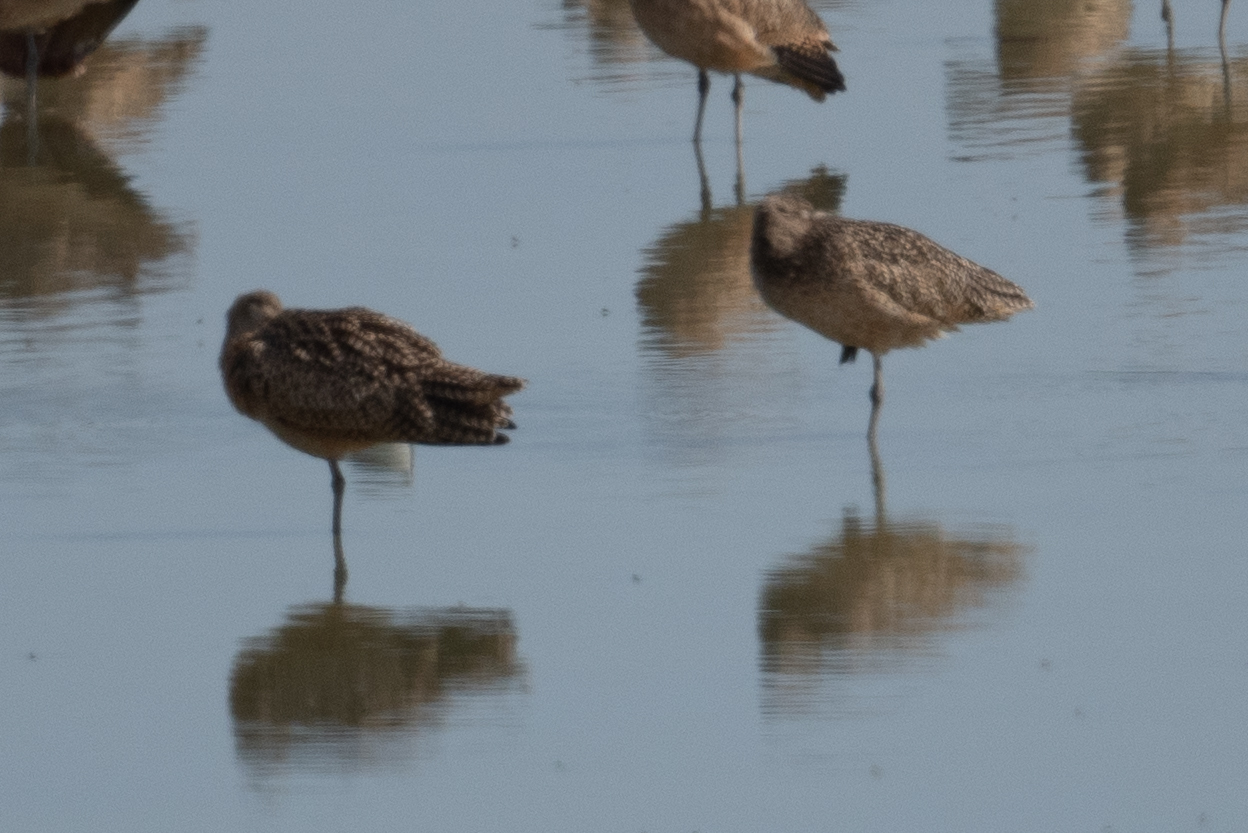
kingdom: Animalia
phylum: Chordata
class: Aves
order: Charadriiformes
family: Scolopacidae
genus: Numenius
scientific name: Numenius americanus
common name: Long-billed curlew
